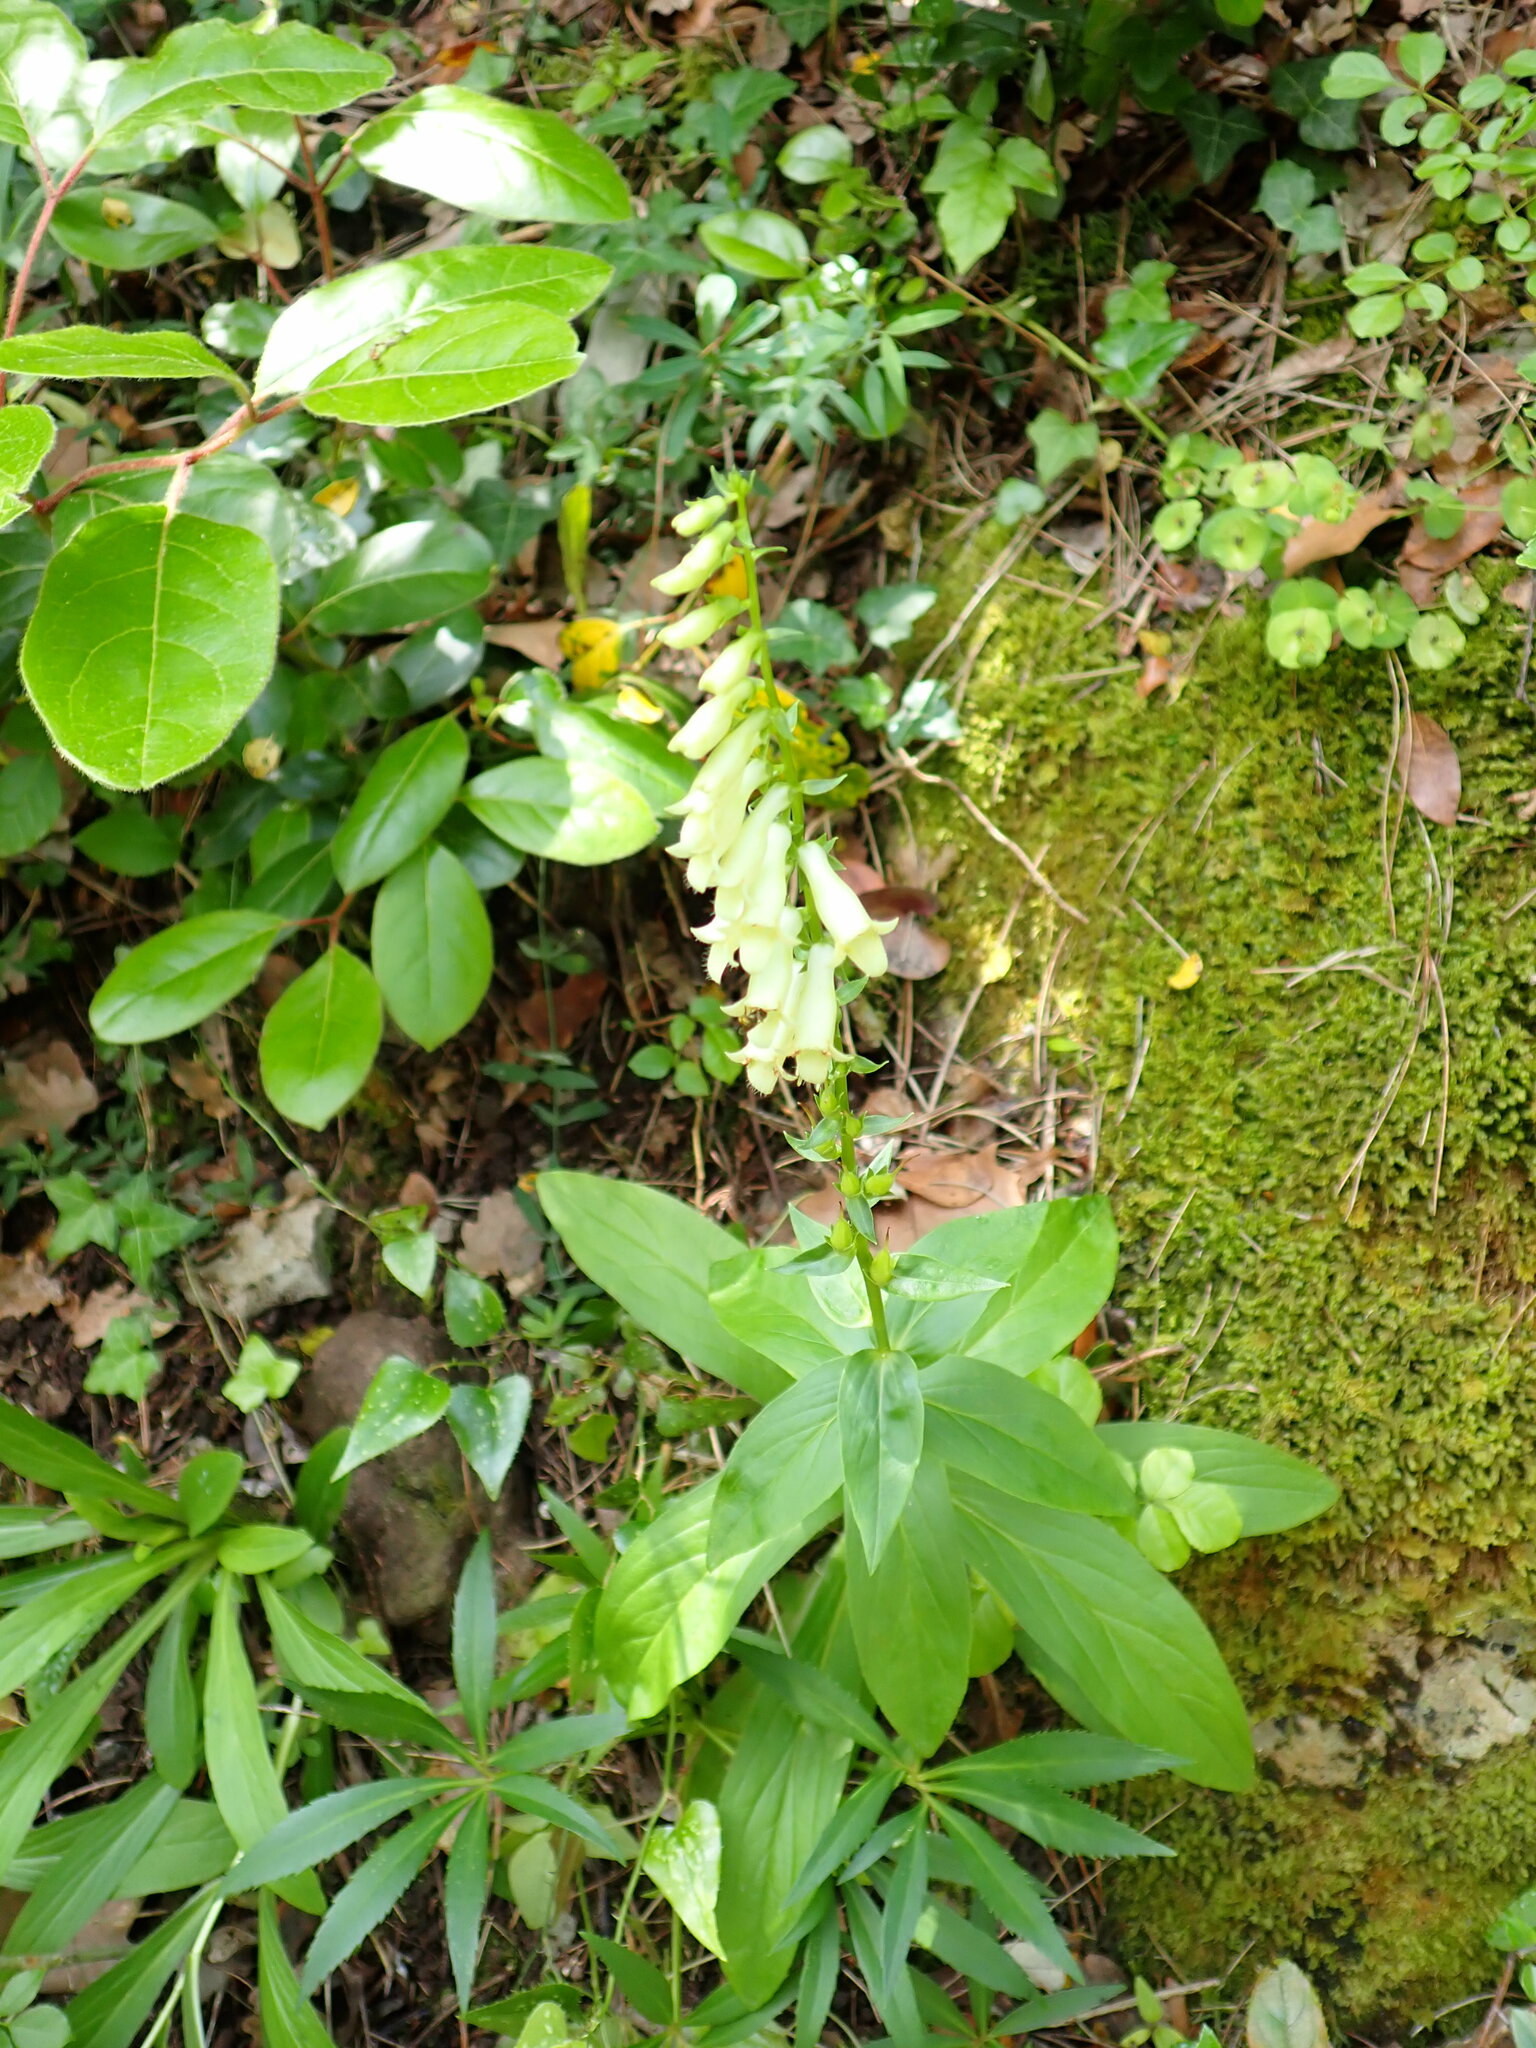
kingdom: Plantae
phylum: Tracheophyta
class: Magnoliopsida
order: Lamiales
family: Plantaginaceae
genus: Digitalis
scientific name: Digitalis lutea
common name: Straw foxglove
